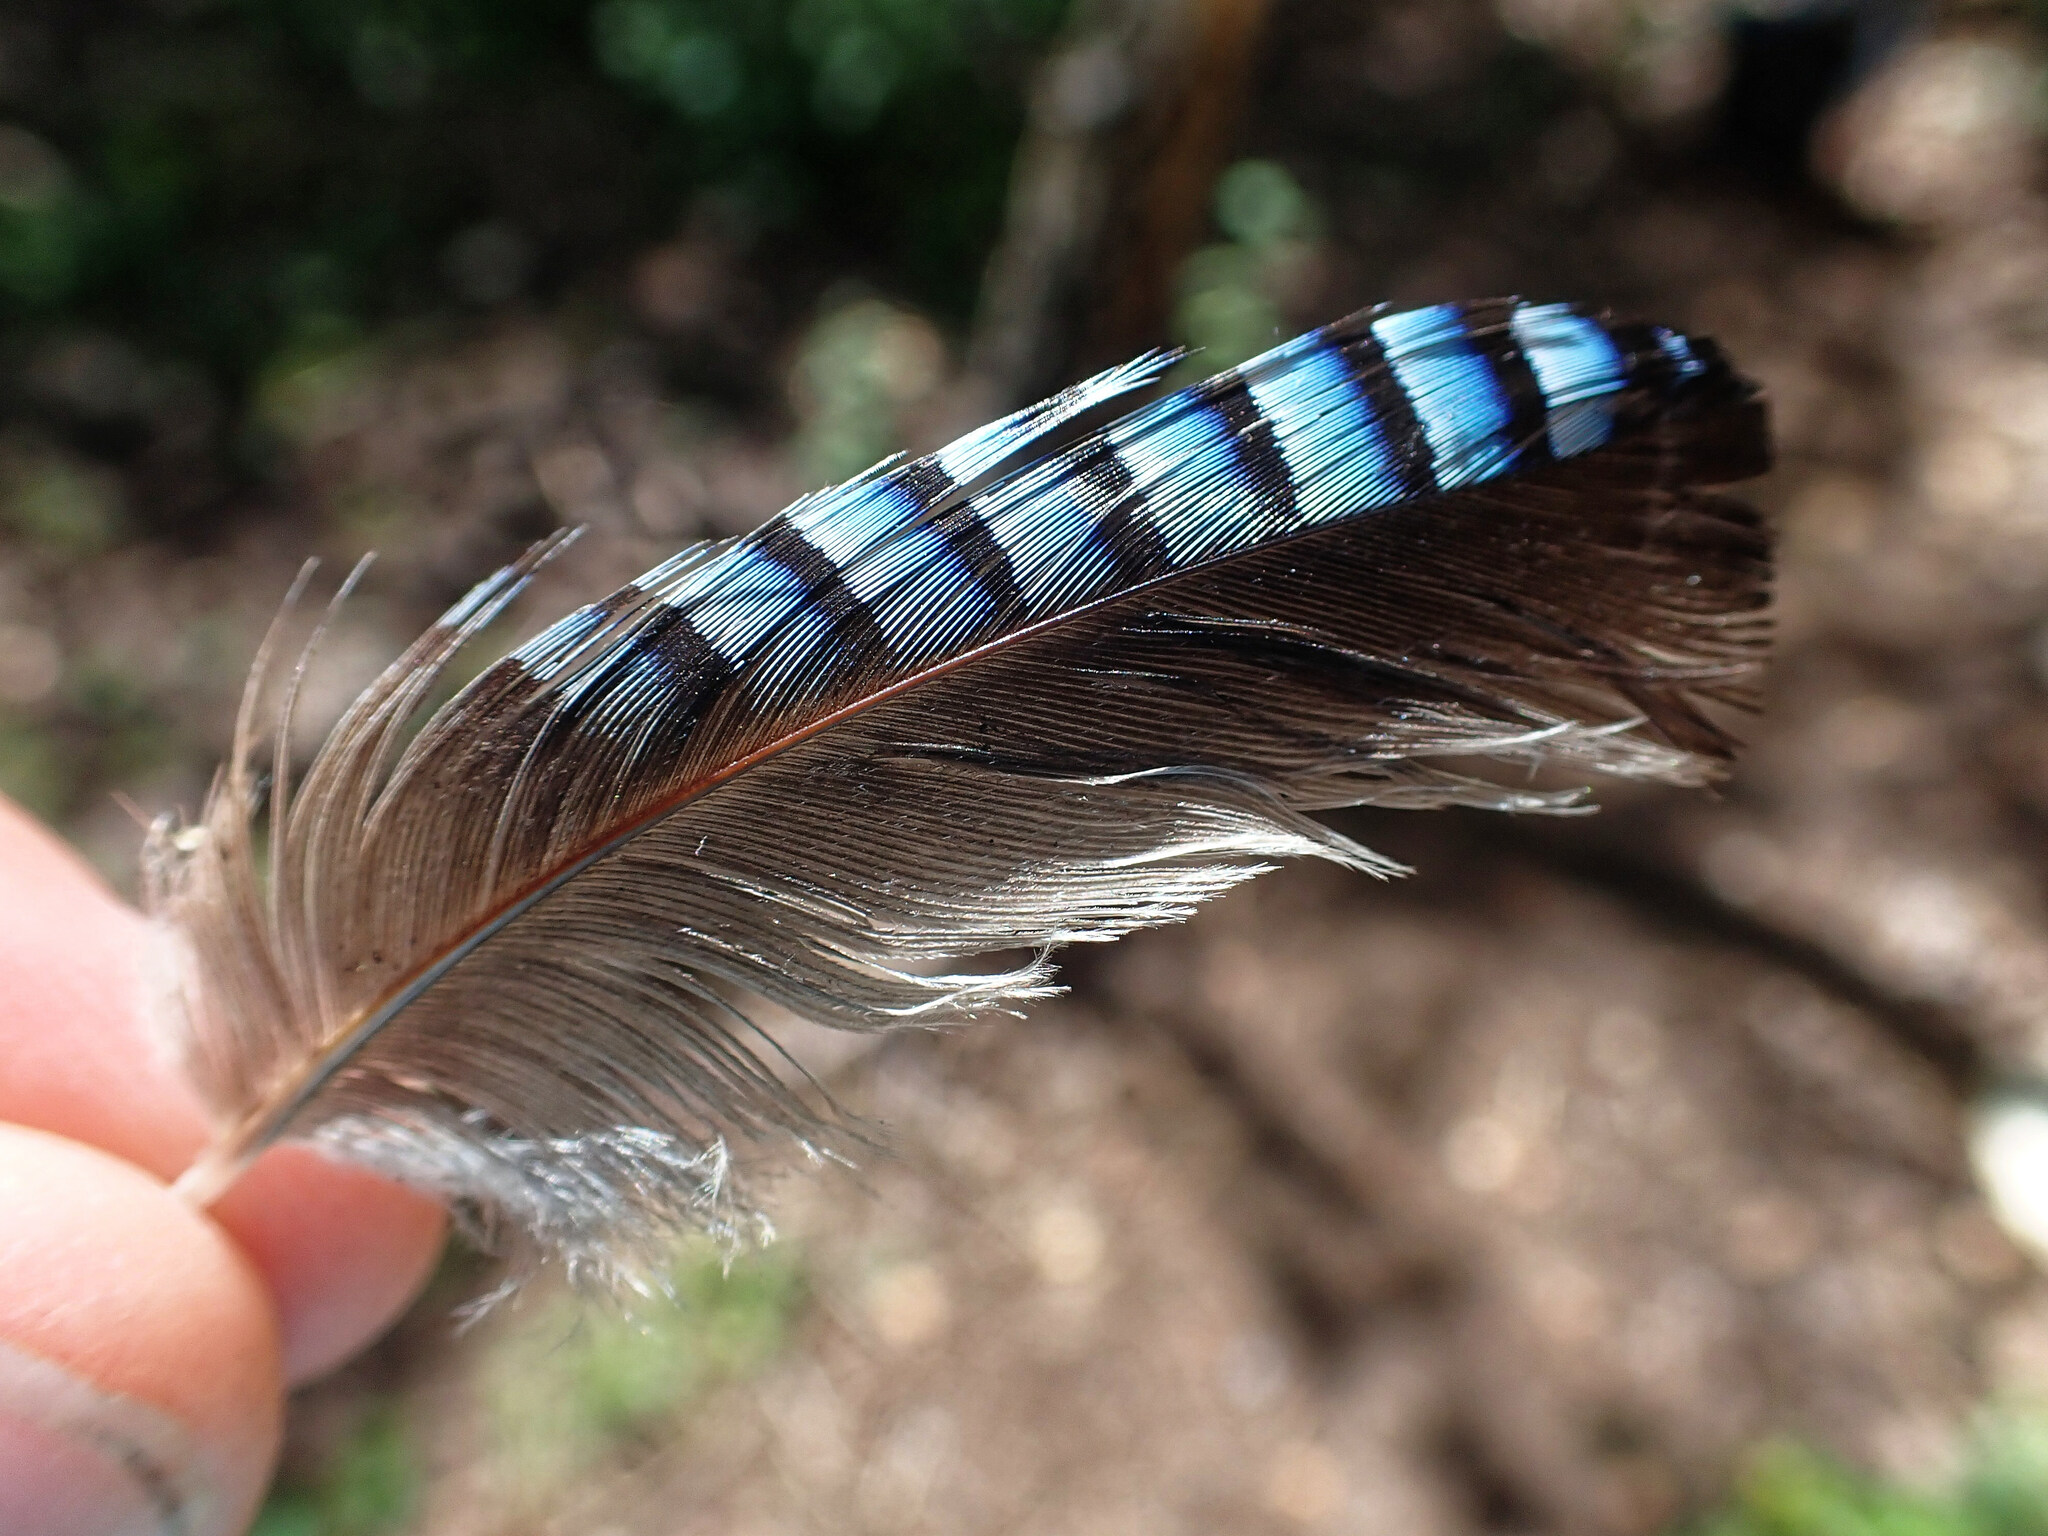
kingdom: Animalia
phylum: Chordata
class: Aves
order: Passeriformes
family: Corvidae
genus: Garrulus
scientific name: Garrulus glandarius
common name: Eurasian jay
